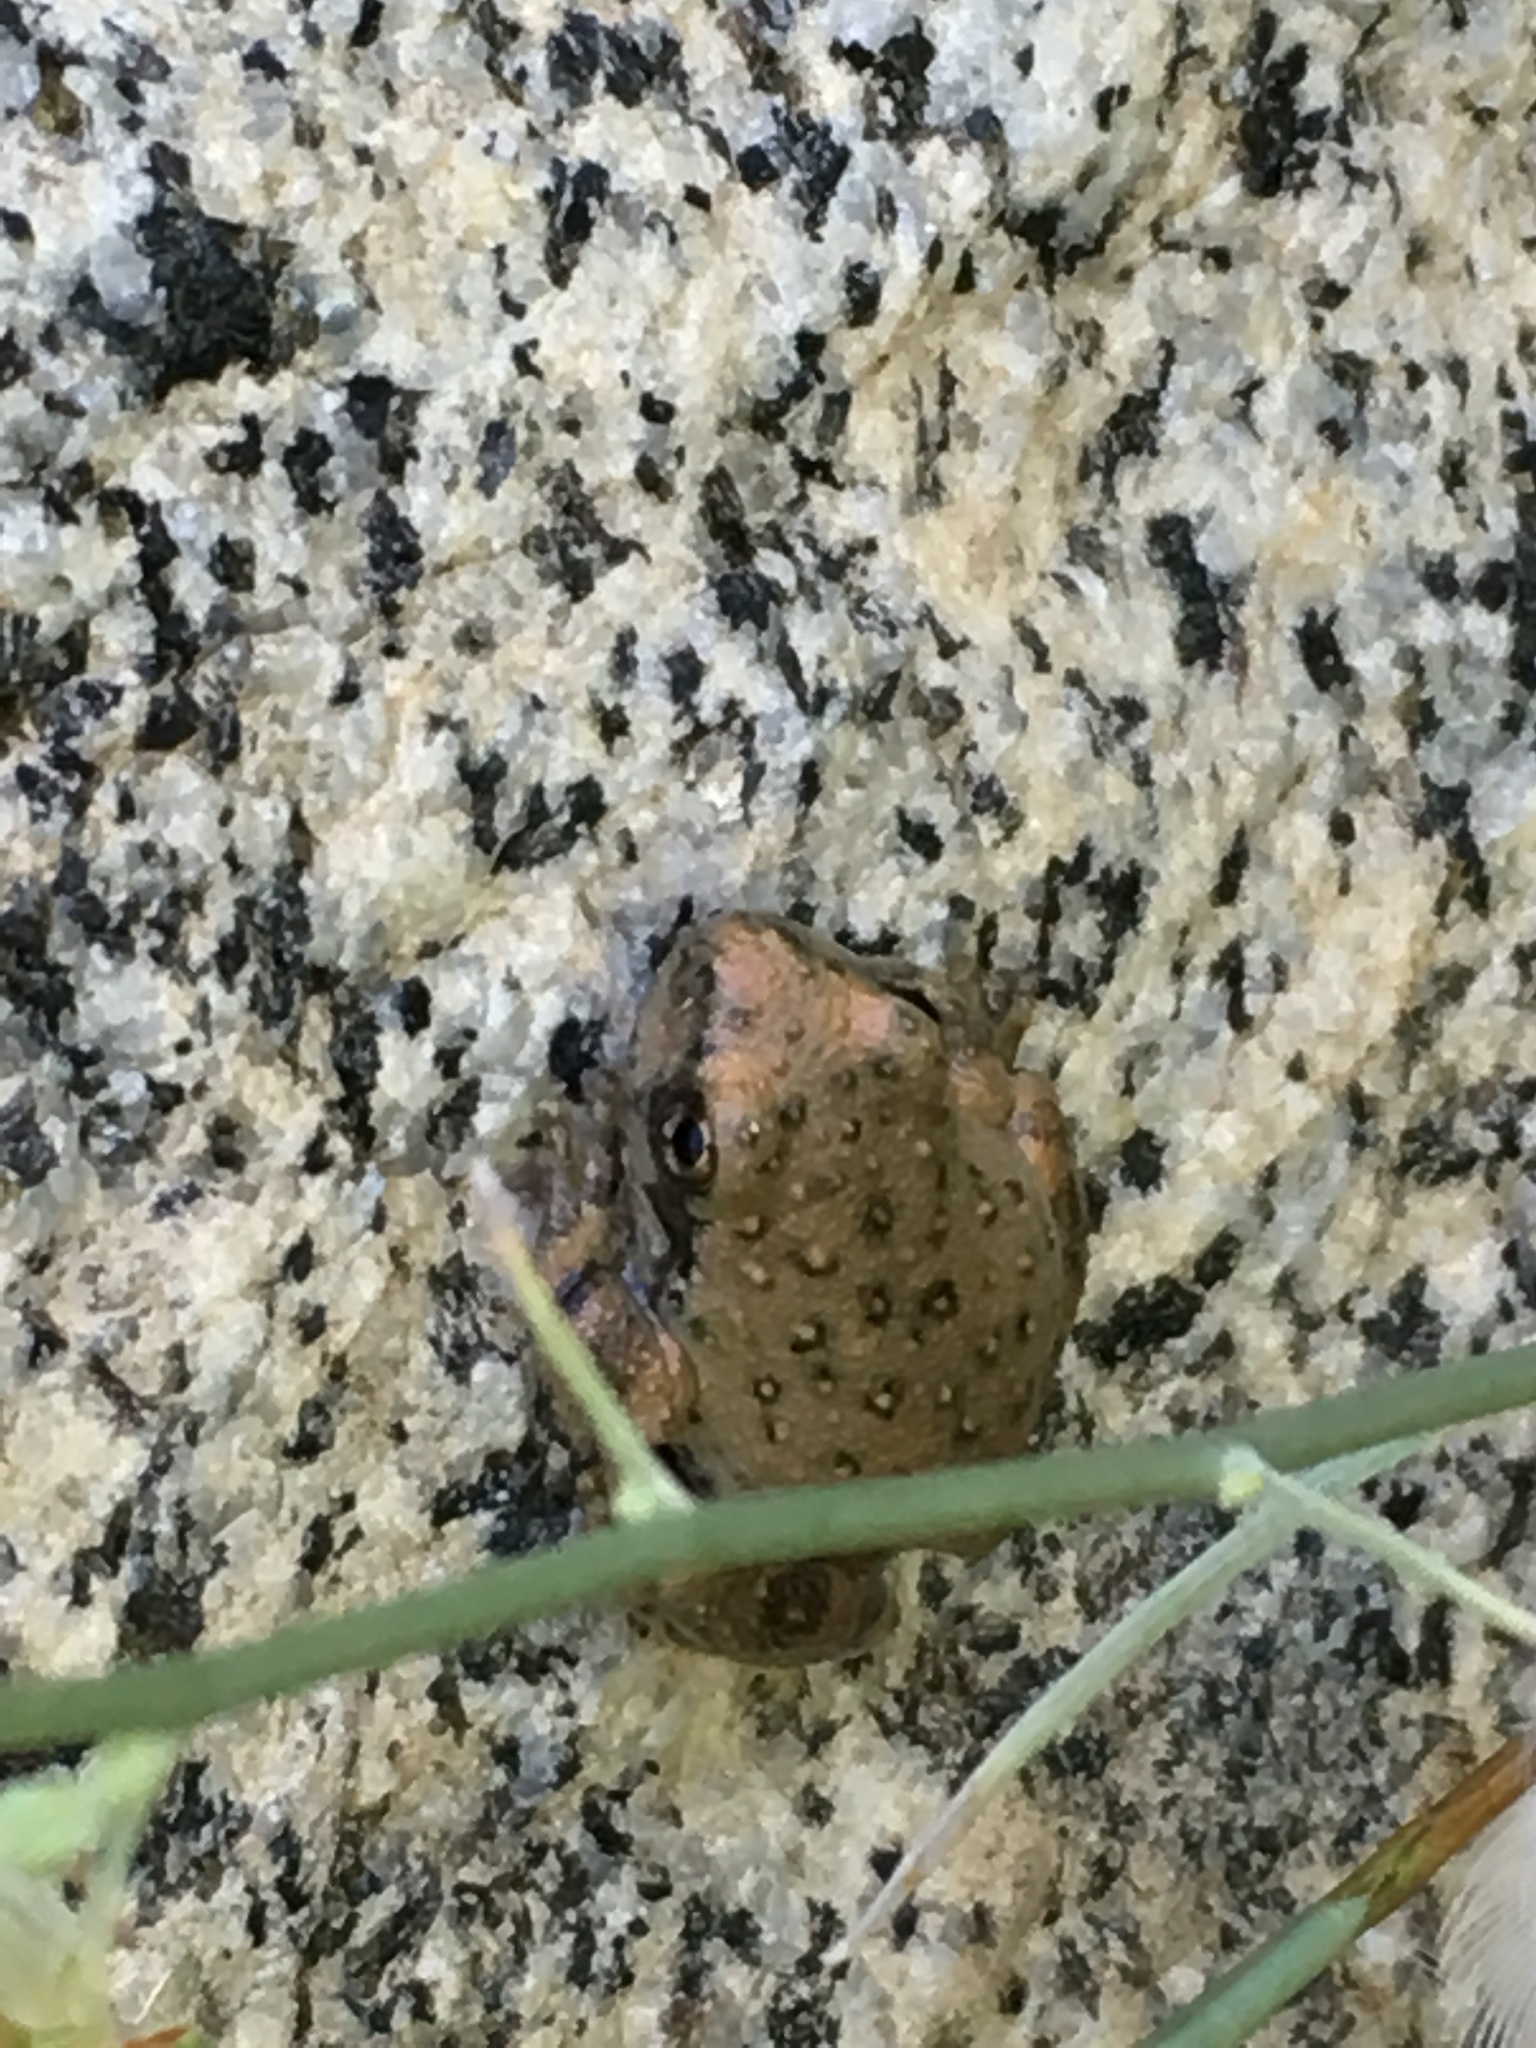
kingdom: Animalia
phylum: Chordata
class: Amphibia
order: Anura
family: Hylidae
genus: Pseudacris
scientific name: Pseudacris cadaverina
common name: California chorus frog
